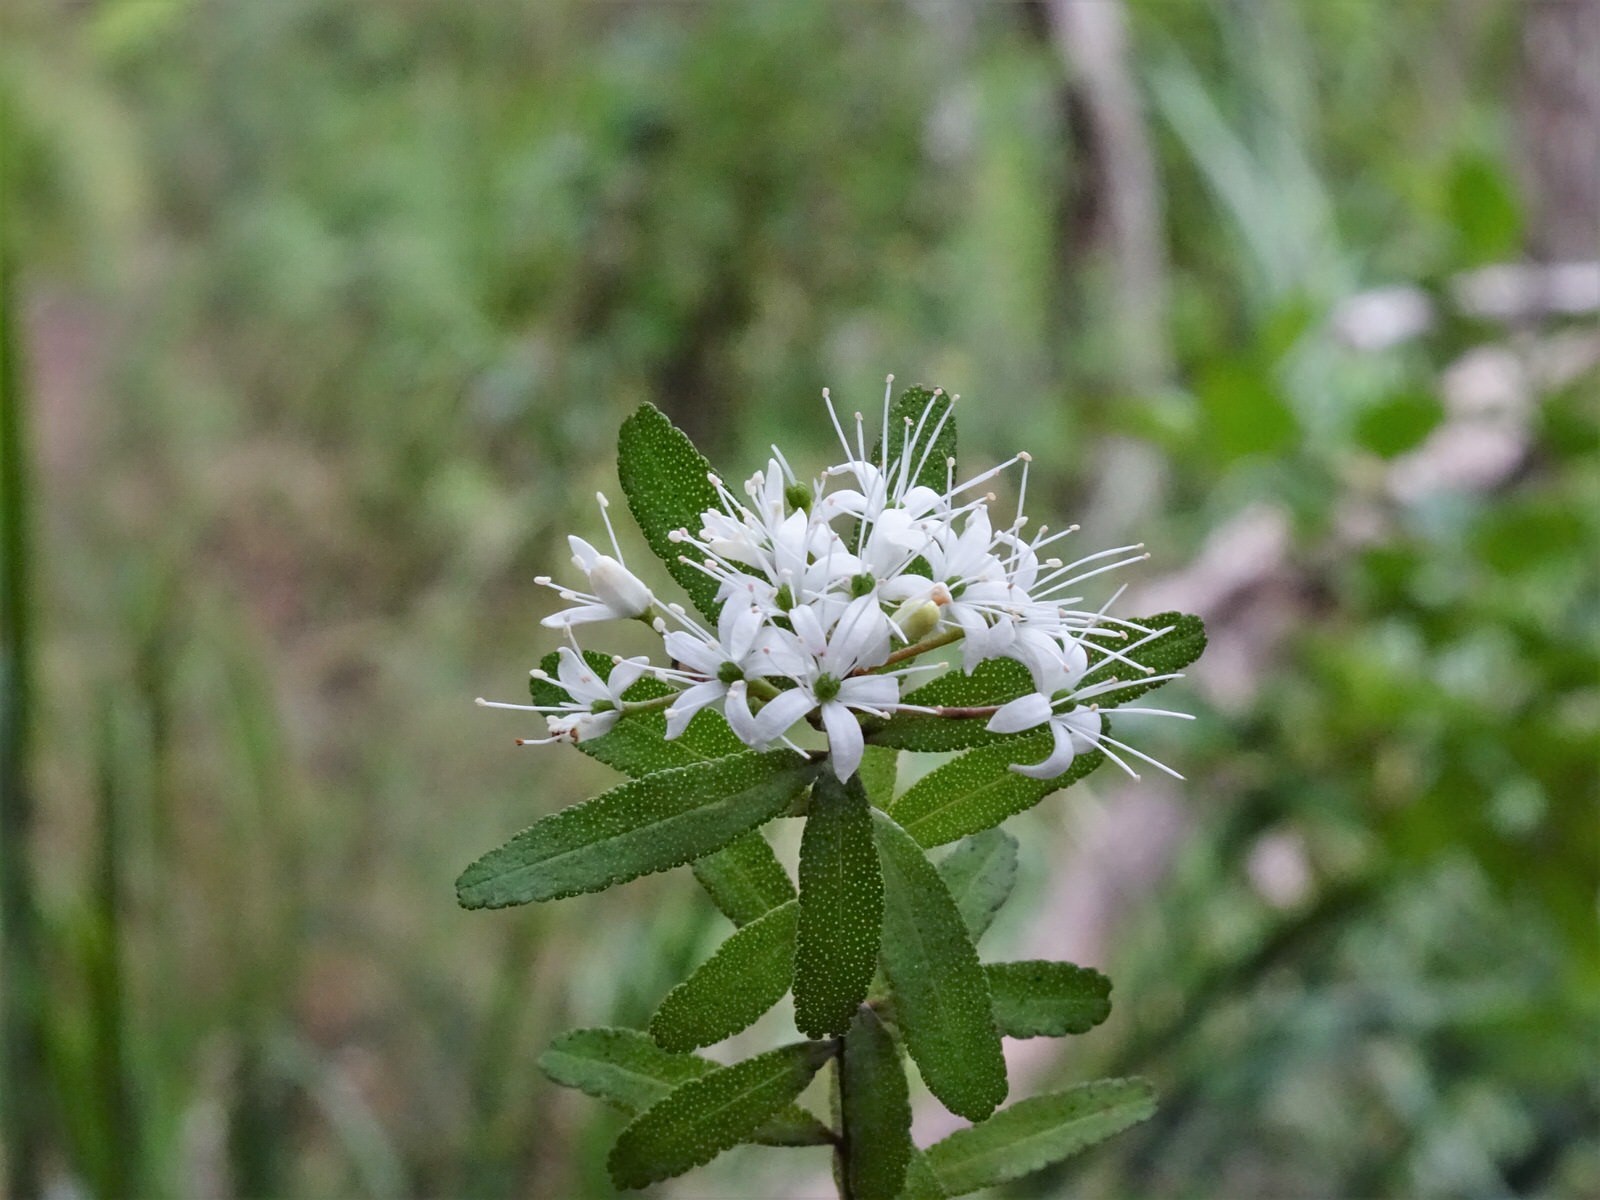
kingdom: Plantae
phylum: Tracheophyta
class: Magnoliopsida
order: Sapindales
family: Rutaceae
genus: Leionema
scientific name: Leionema nudum
